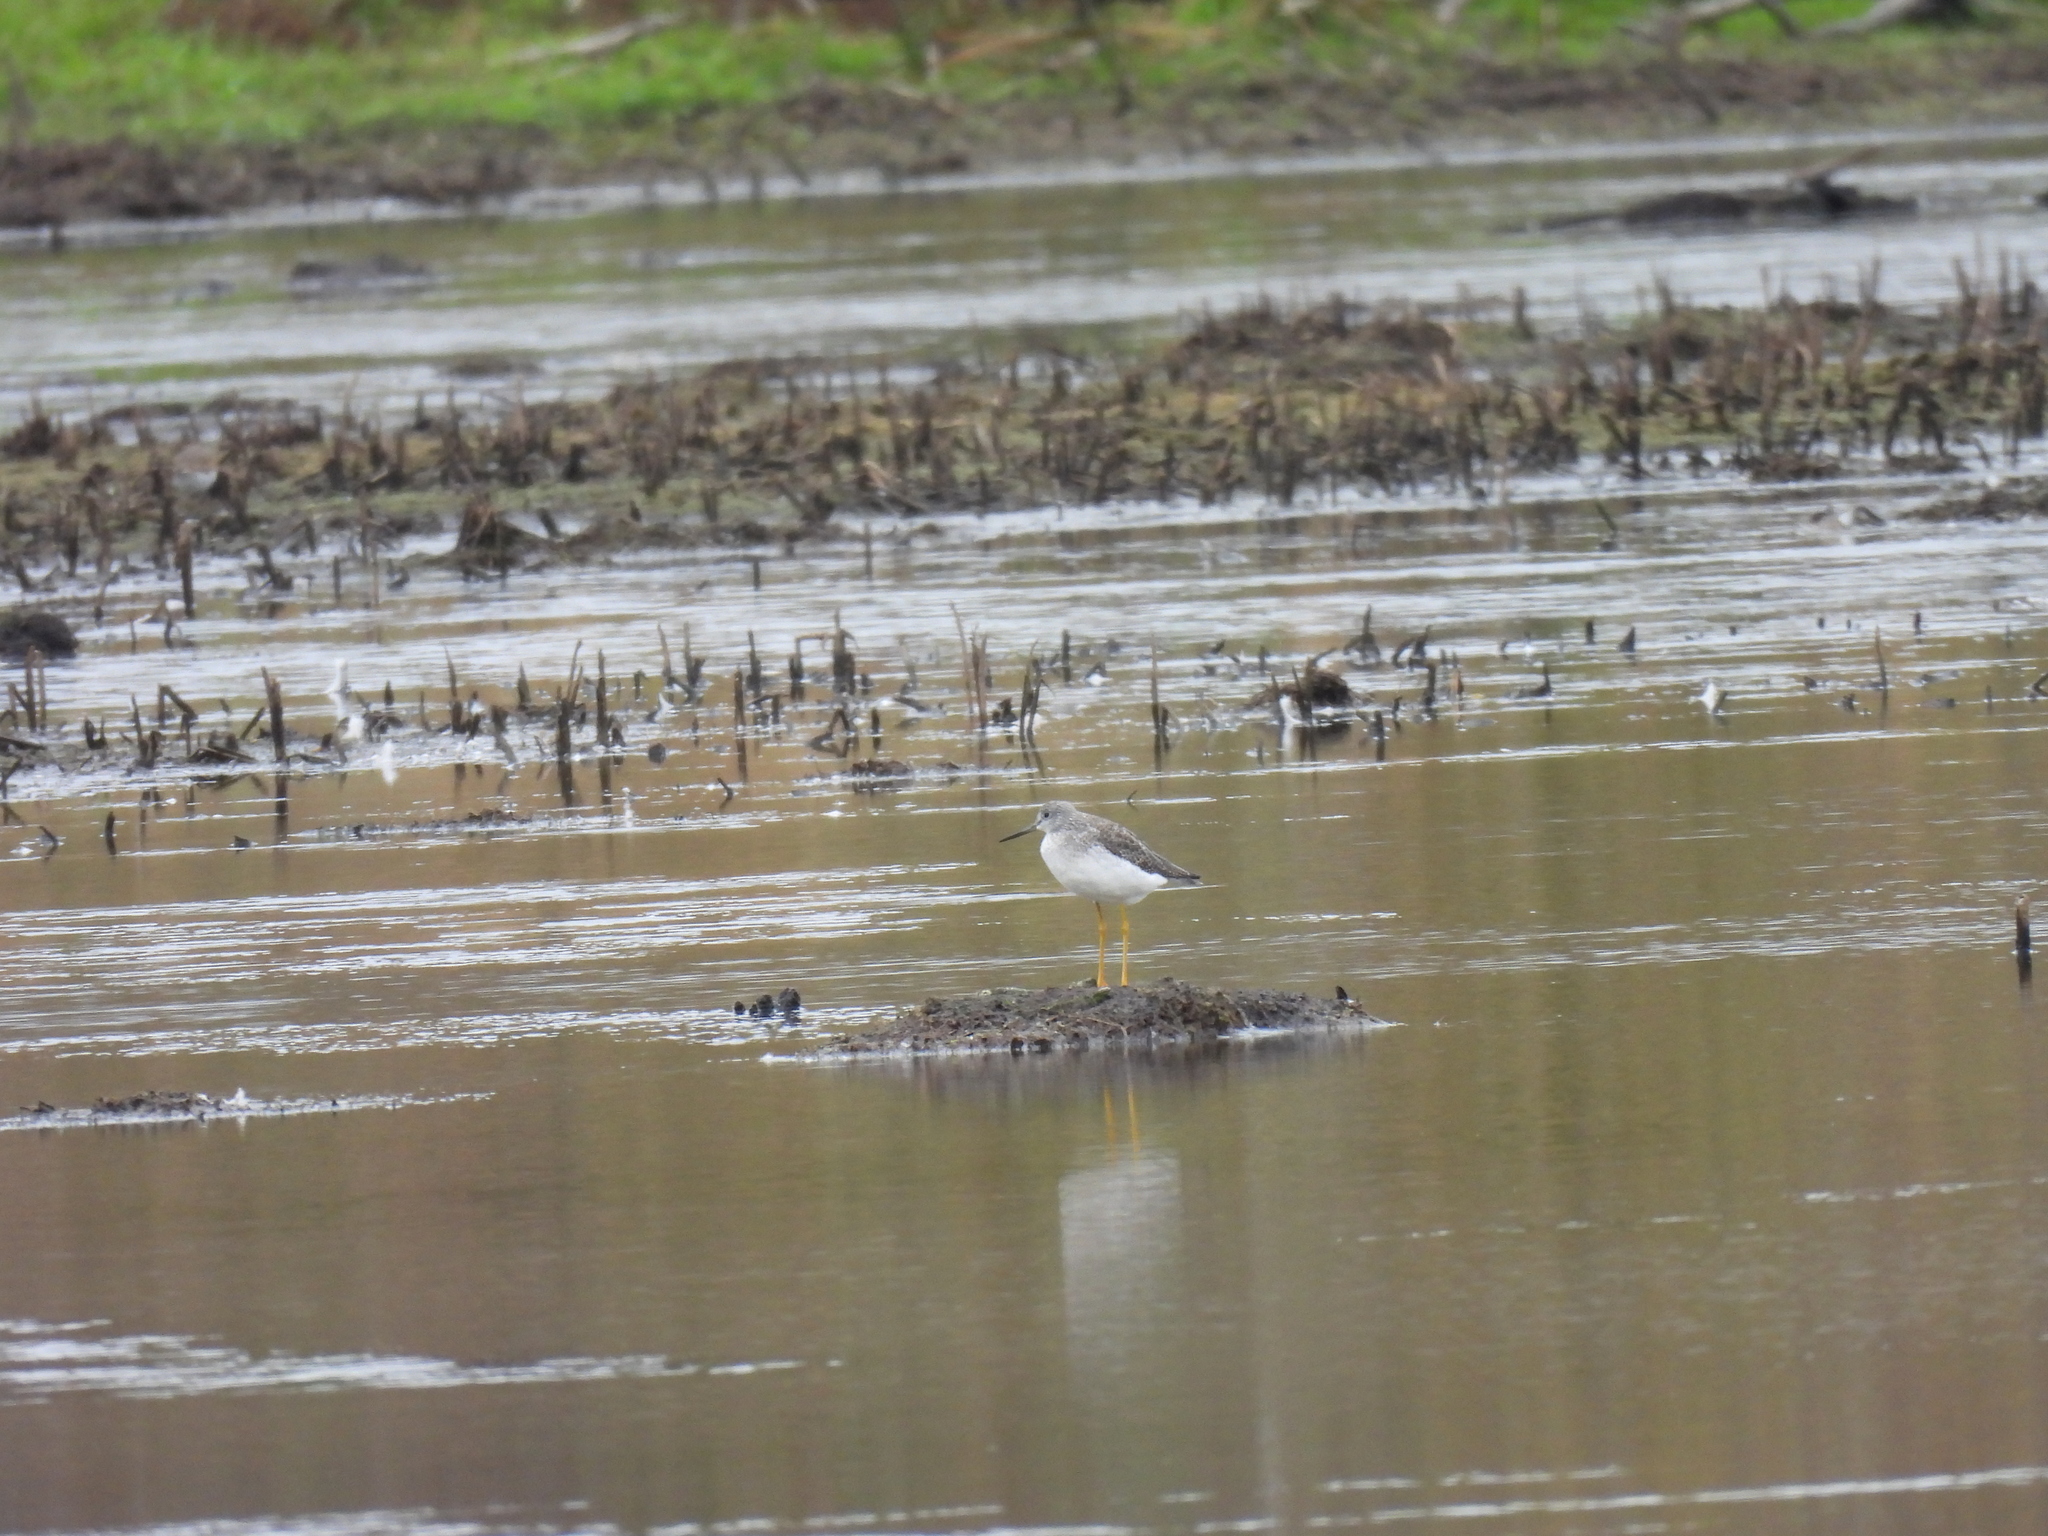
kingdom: Animalia
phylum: Chordata
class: Aves
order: Charadriiformes
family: Scolopacidae
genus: Tringa
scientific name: Tringa melanoleuca
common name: Greater yellowlegs
